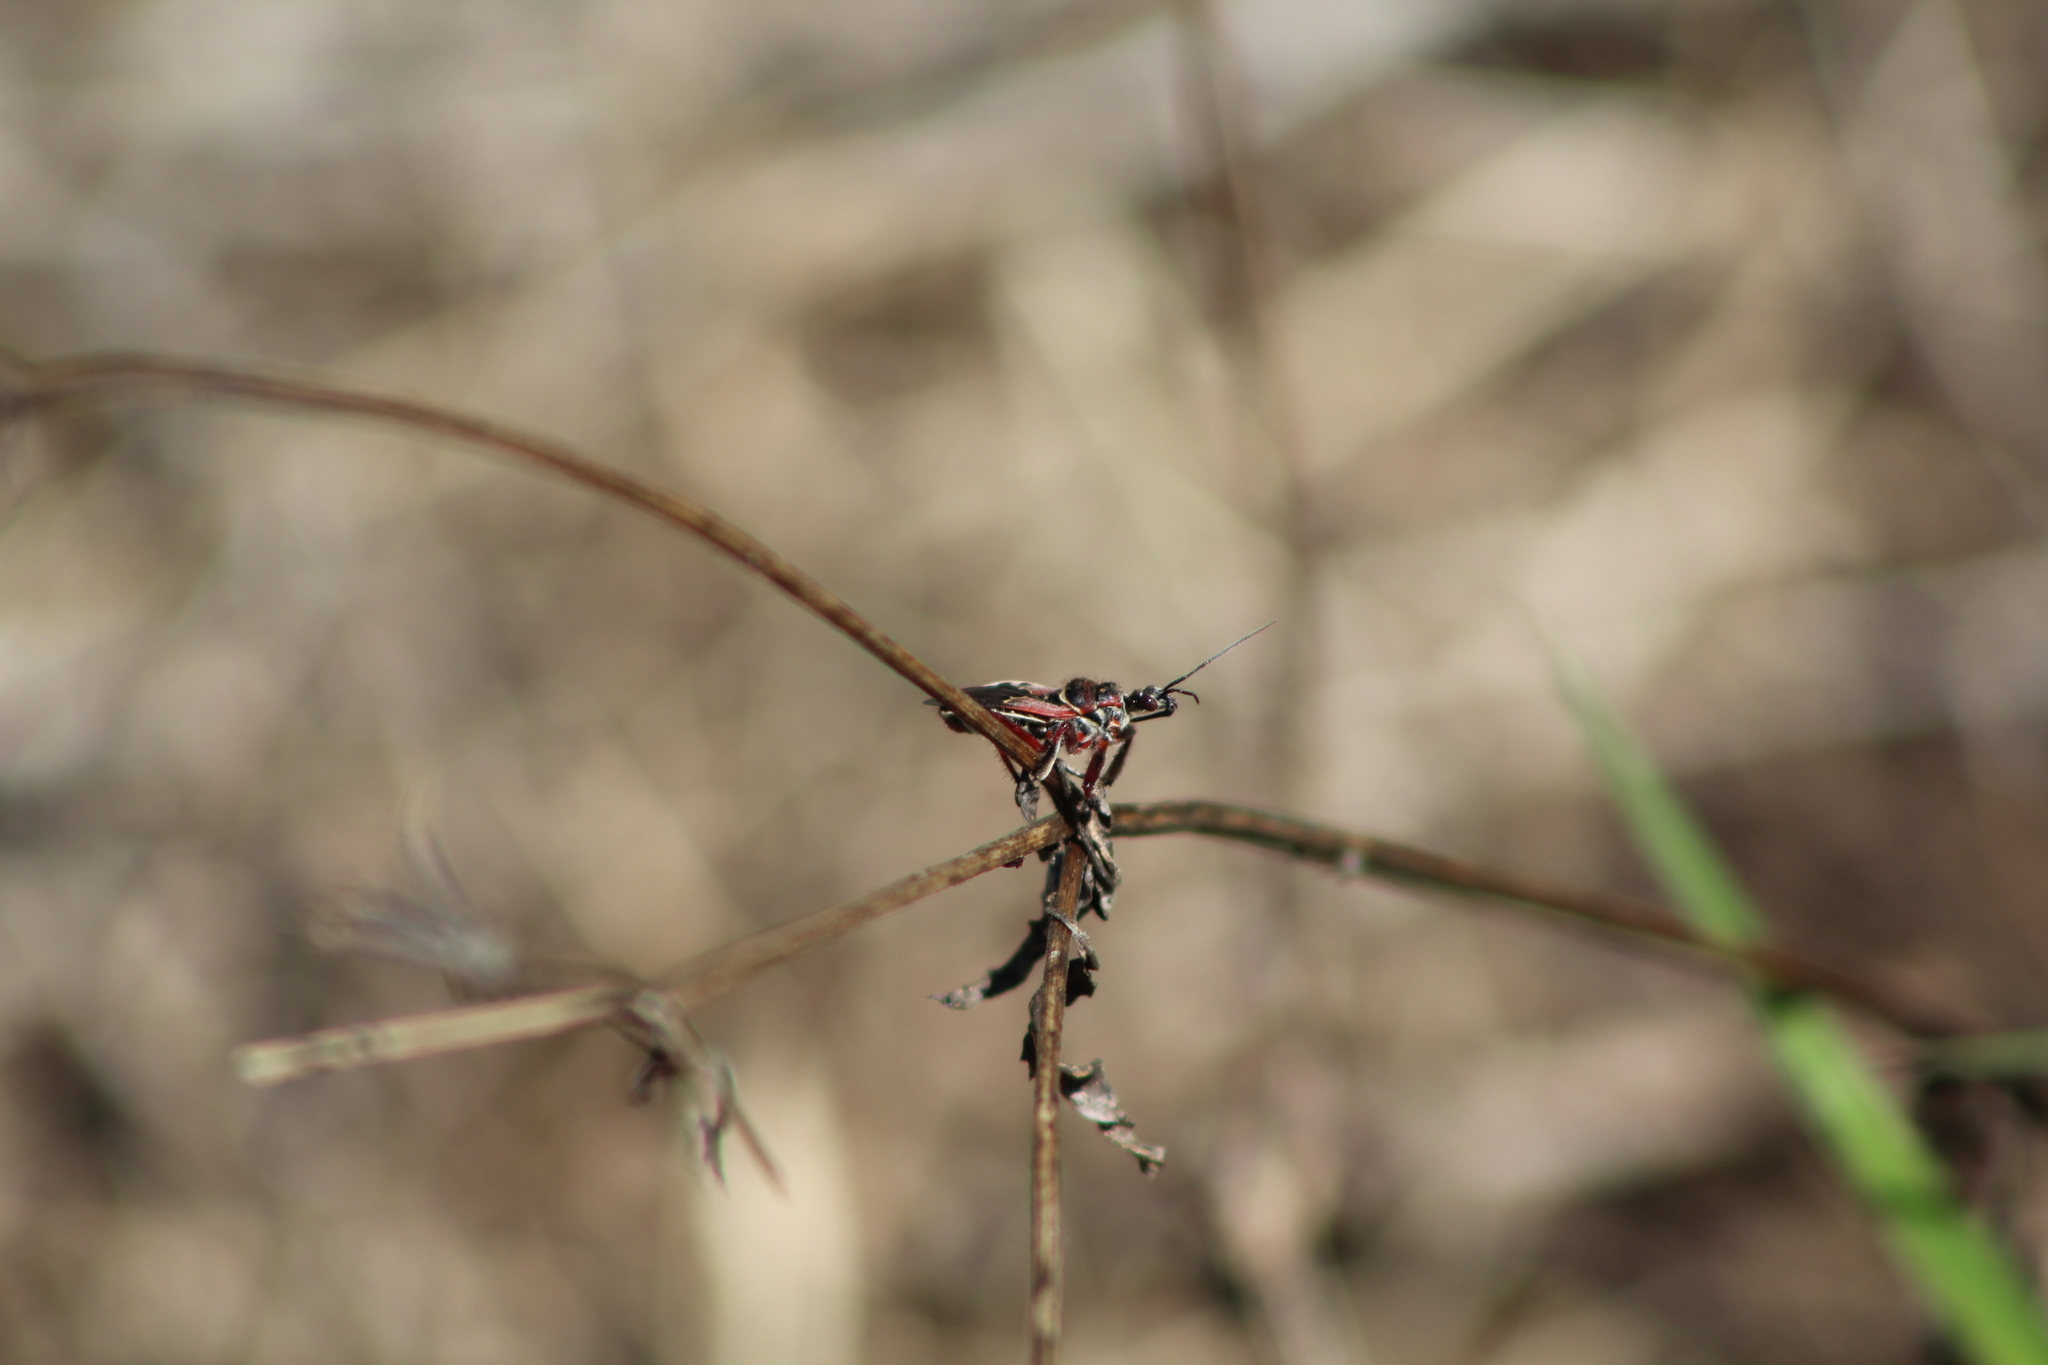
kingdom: Animalia
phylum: Arthropoda
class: Insecta
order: Hemiptera
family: Reduviidae
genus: Apiomerus
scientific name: Apiomerus floridensis
